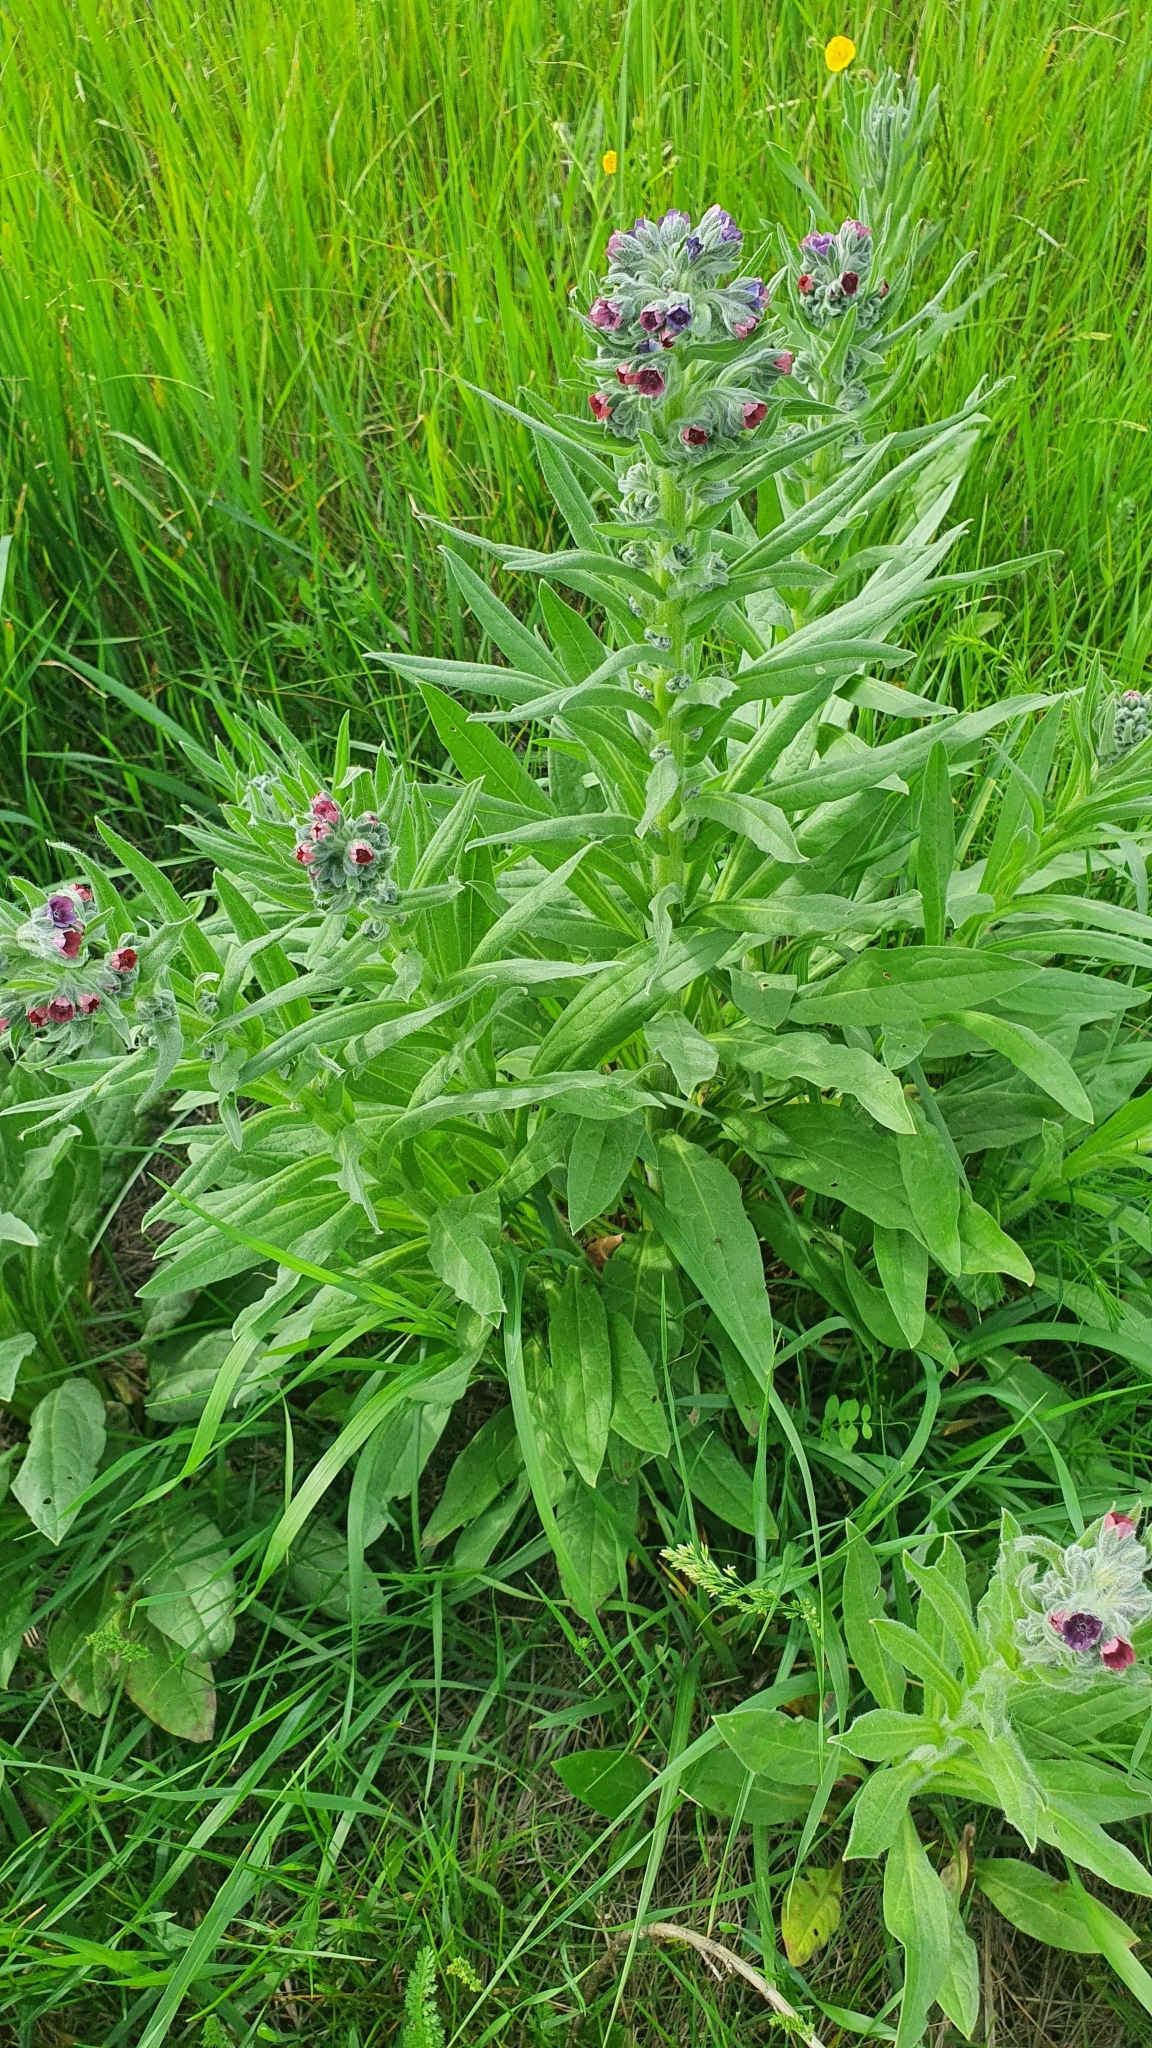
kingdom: Plantae
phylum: Tracheophyta
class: Magnoliopsida
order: Boraginales
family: Boraginaceae
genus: Cynoglossum
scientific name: Cynoglossum officinale
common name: Hound's-tongue
